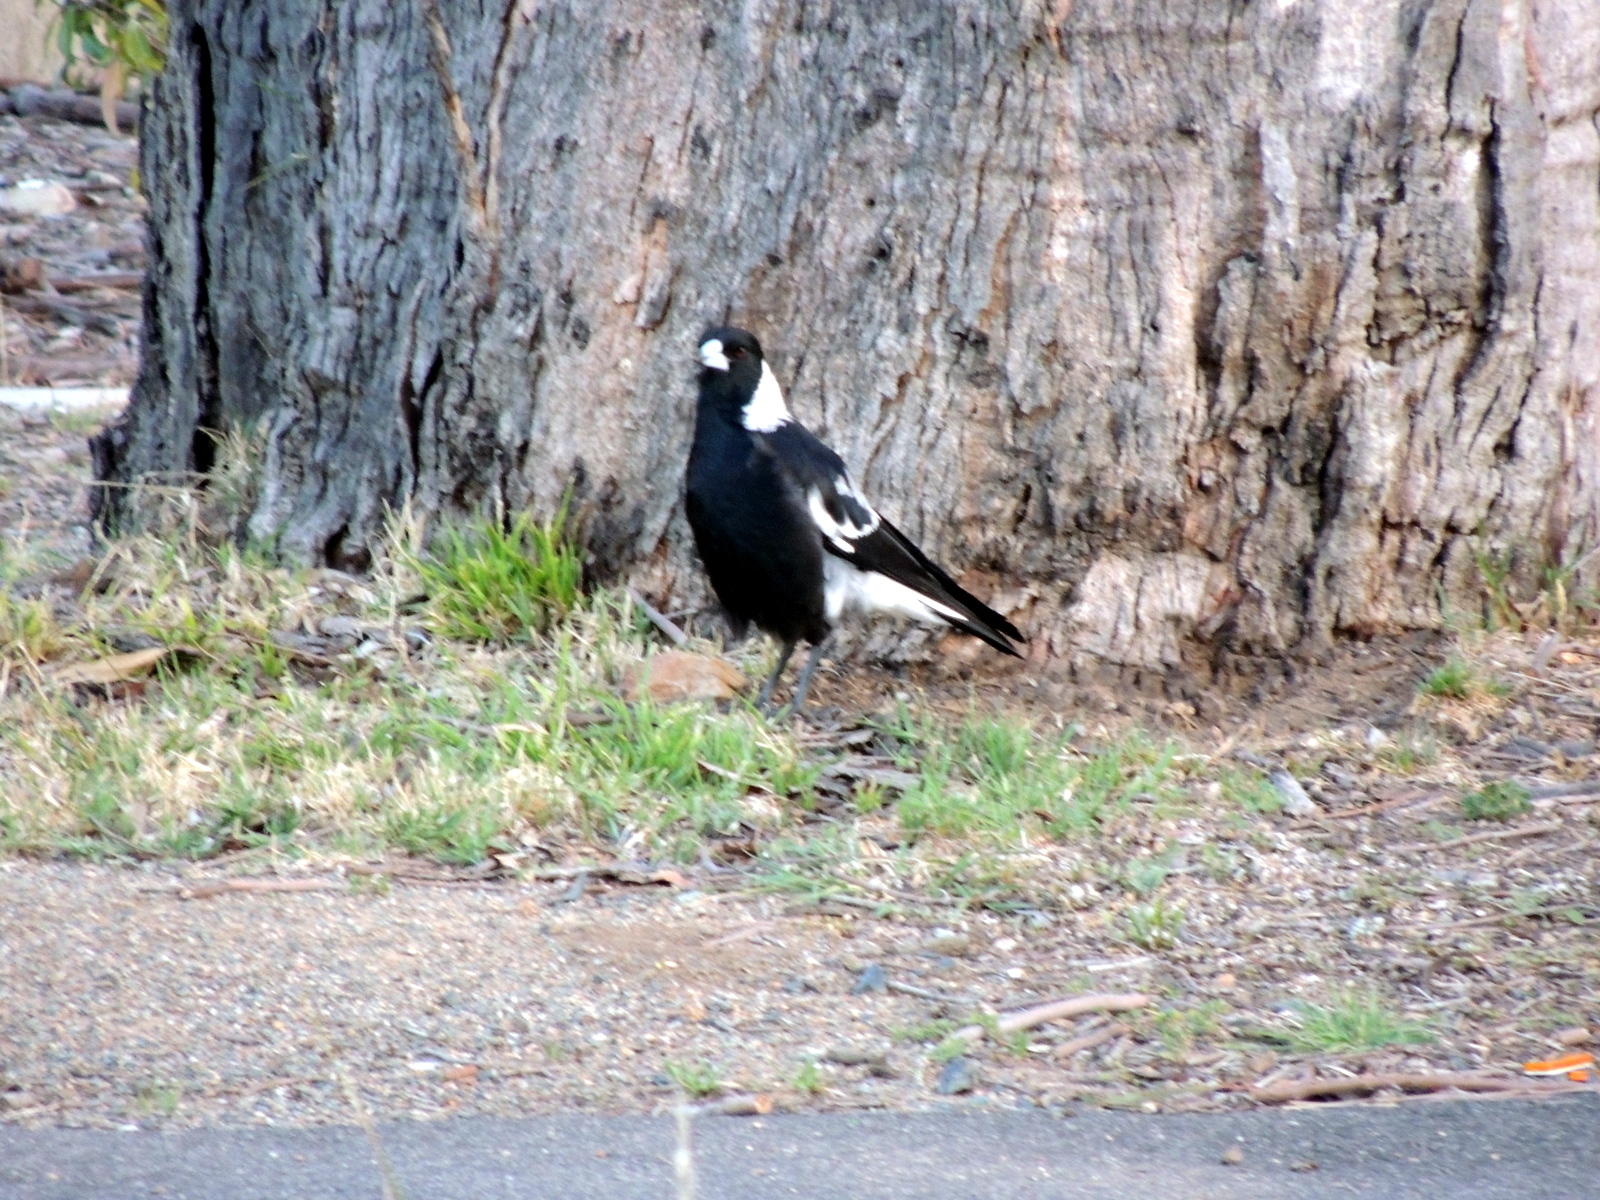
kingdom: Animalia
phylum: Chordata
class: Aves
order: Passeriformes
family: Cracticidae
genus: Gymnorhina
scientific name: Gymnorhina tibicen
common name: Australian magpie
